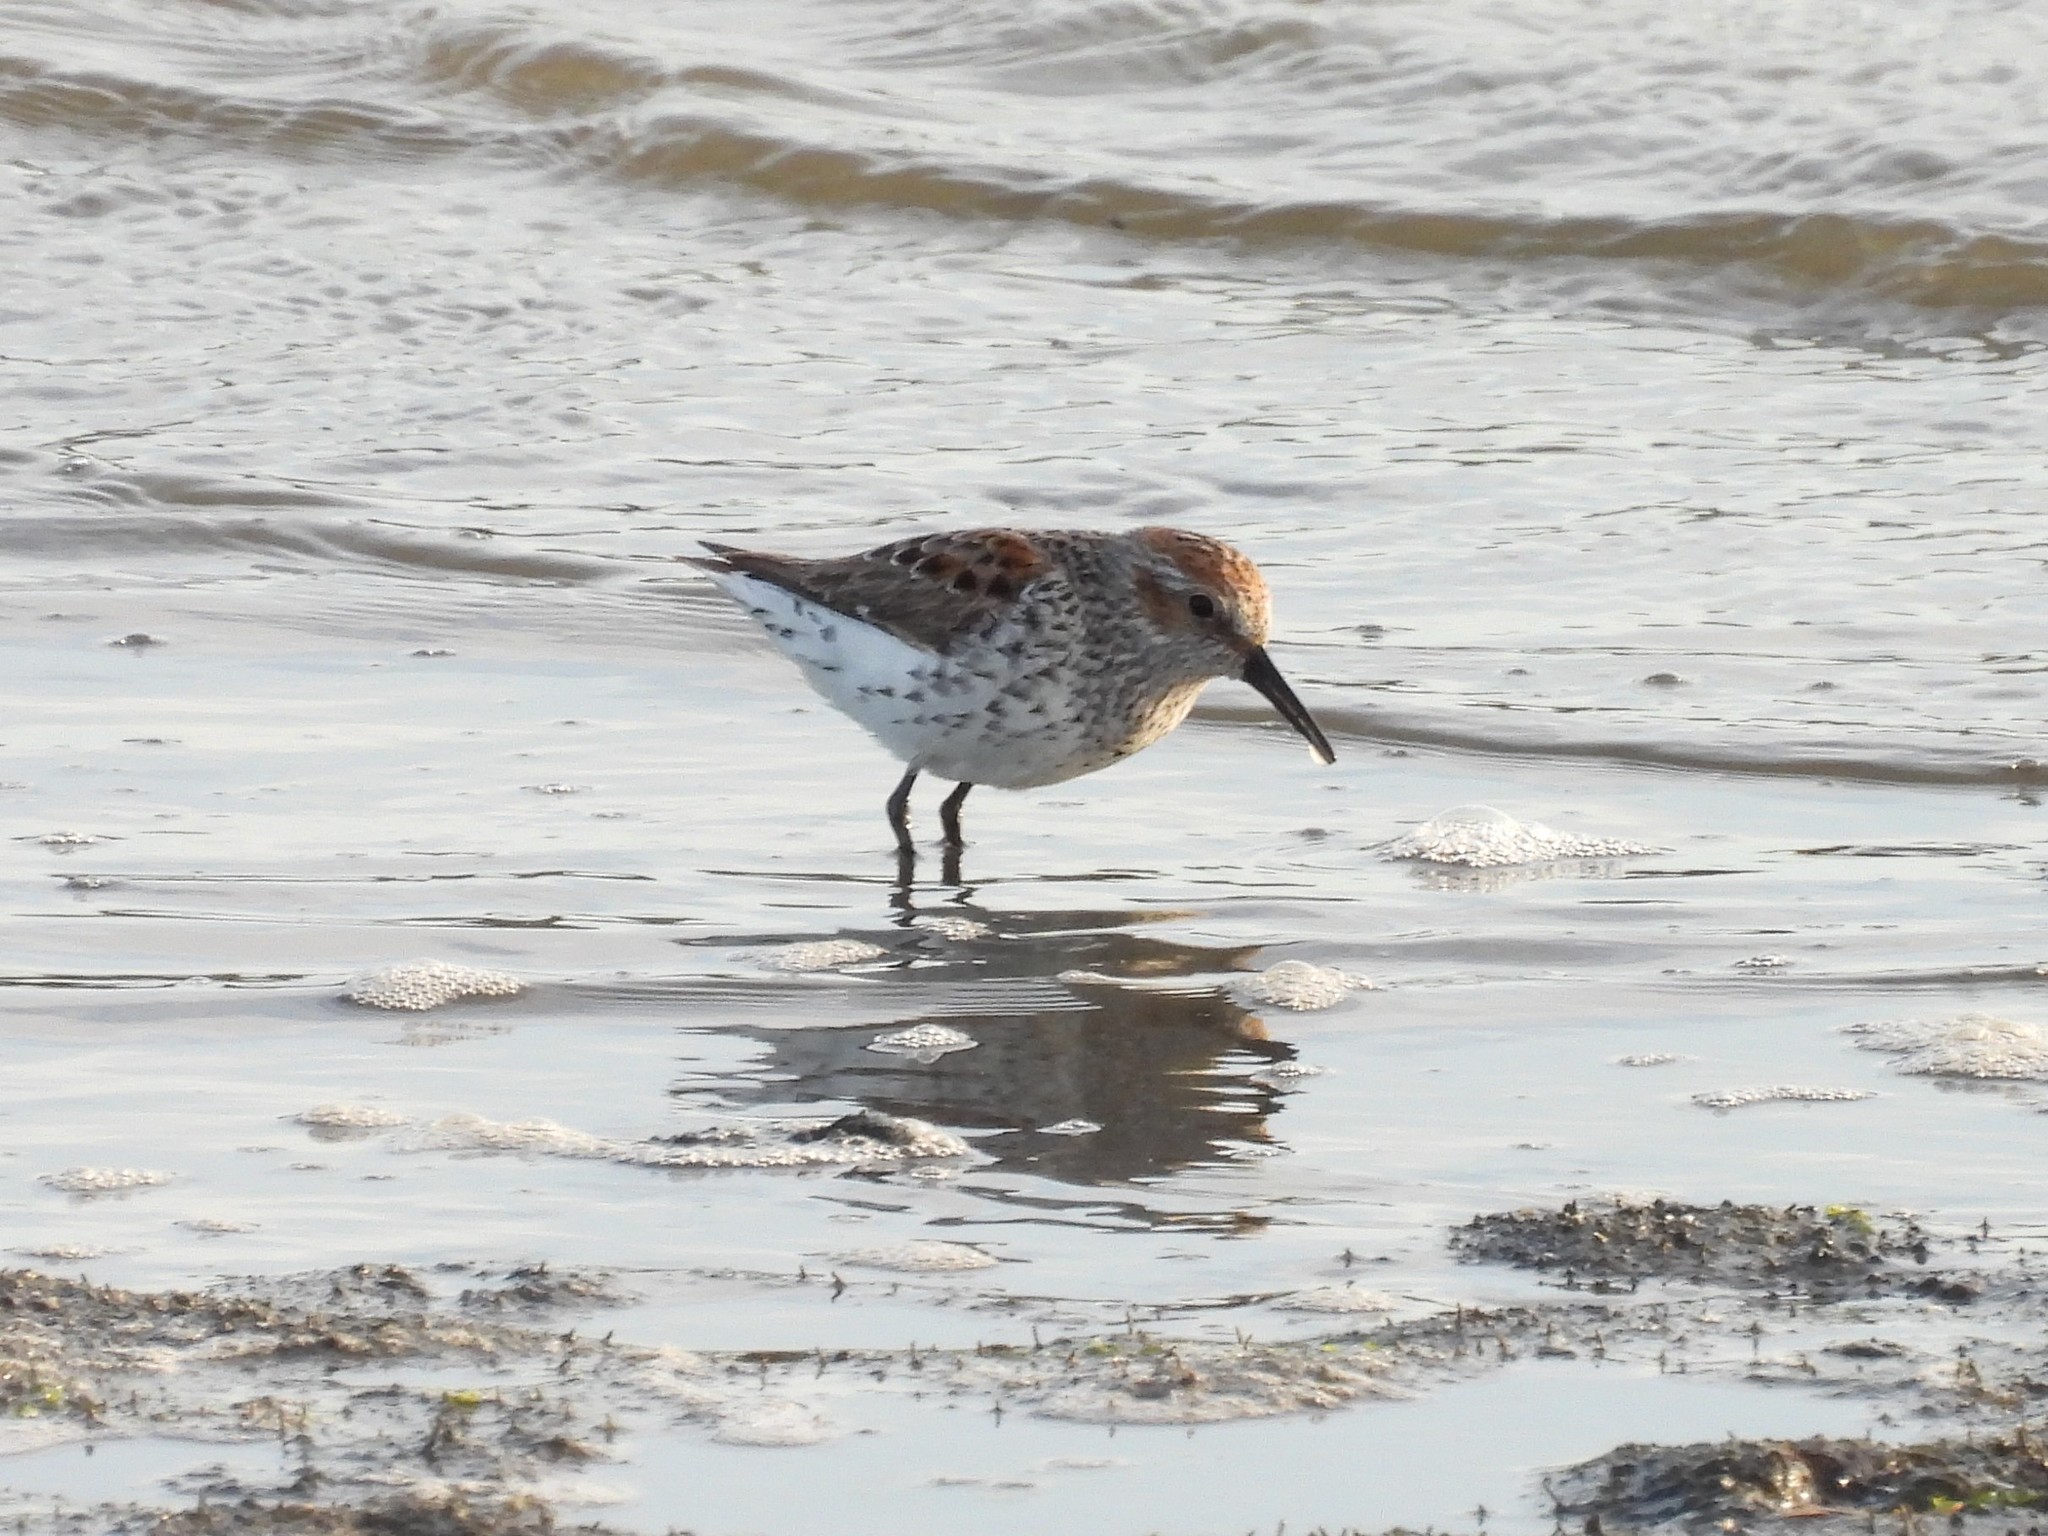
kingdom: Animalia
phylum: Chordata
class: Aves
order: Charadriiformes
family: Scolopacidae
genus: Calidris
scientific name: Calidris mauri
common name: Western sandpiper
